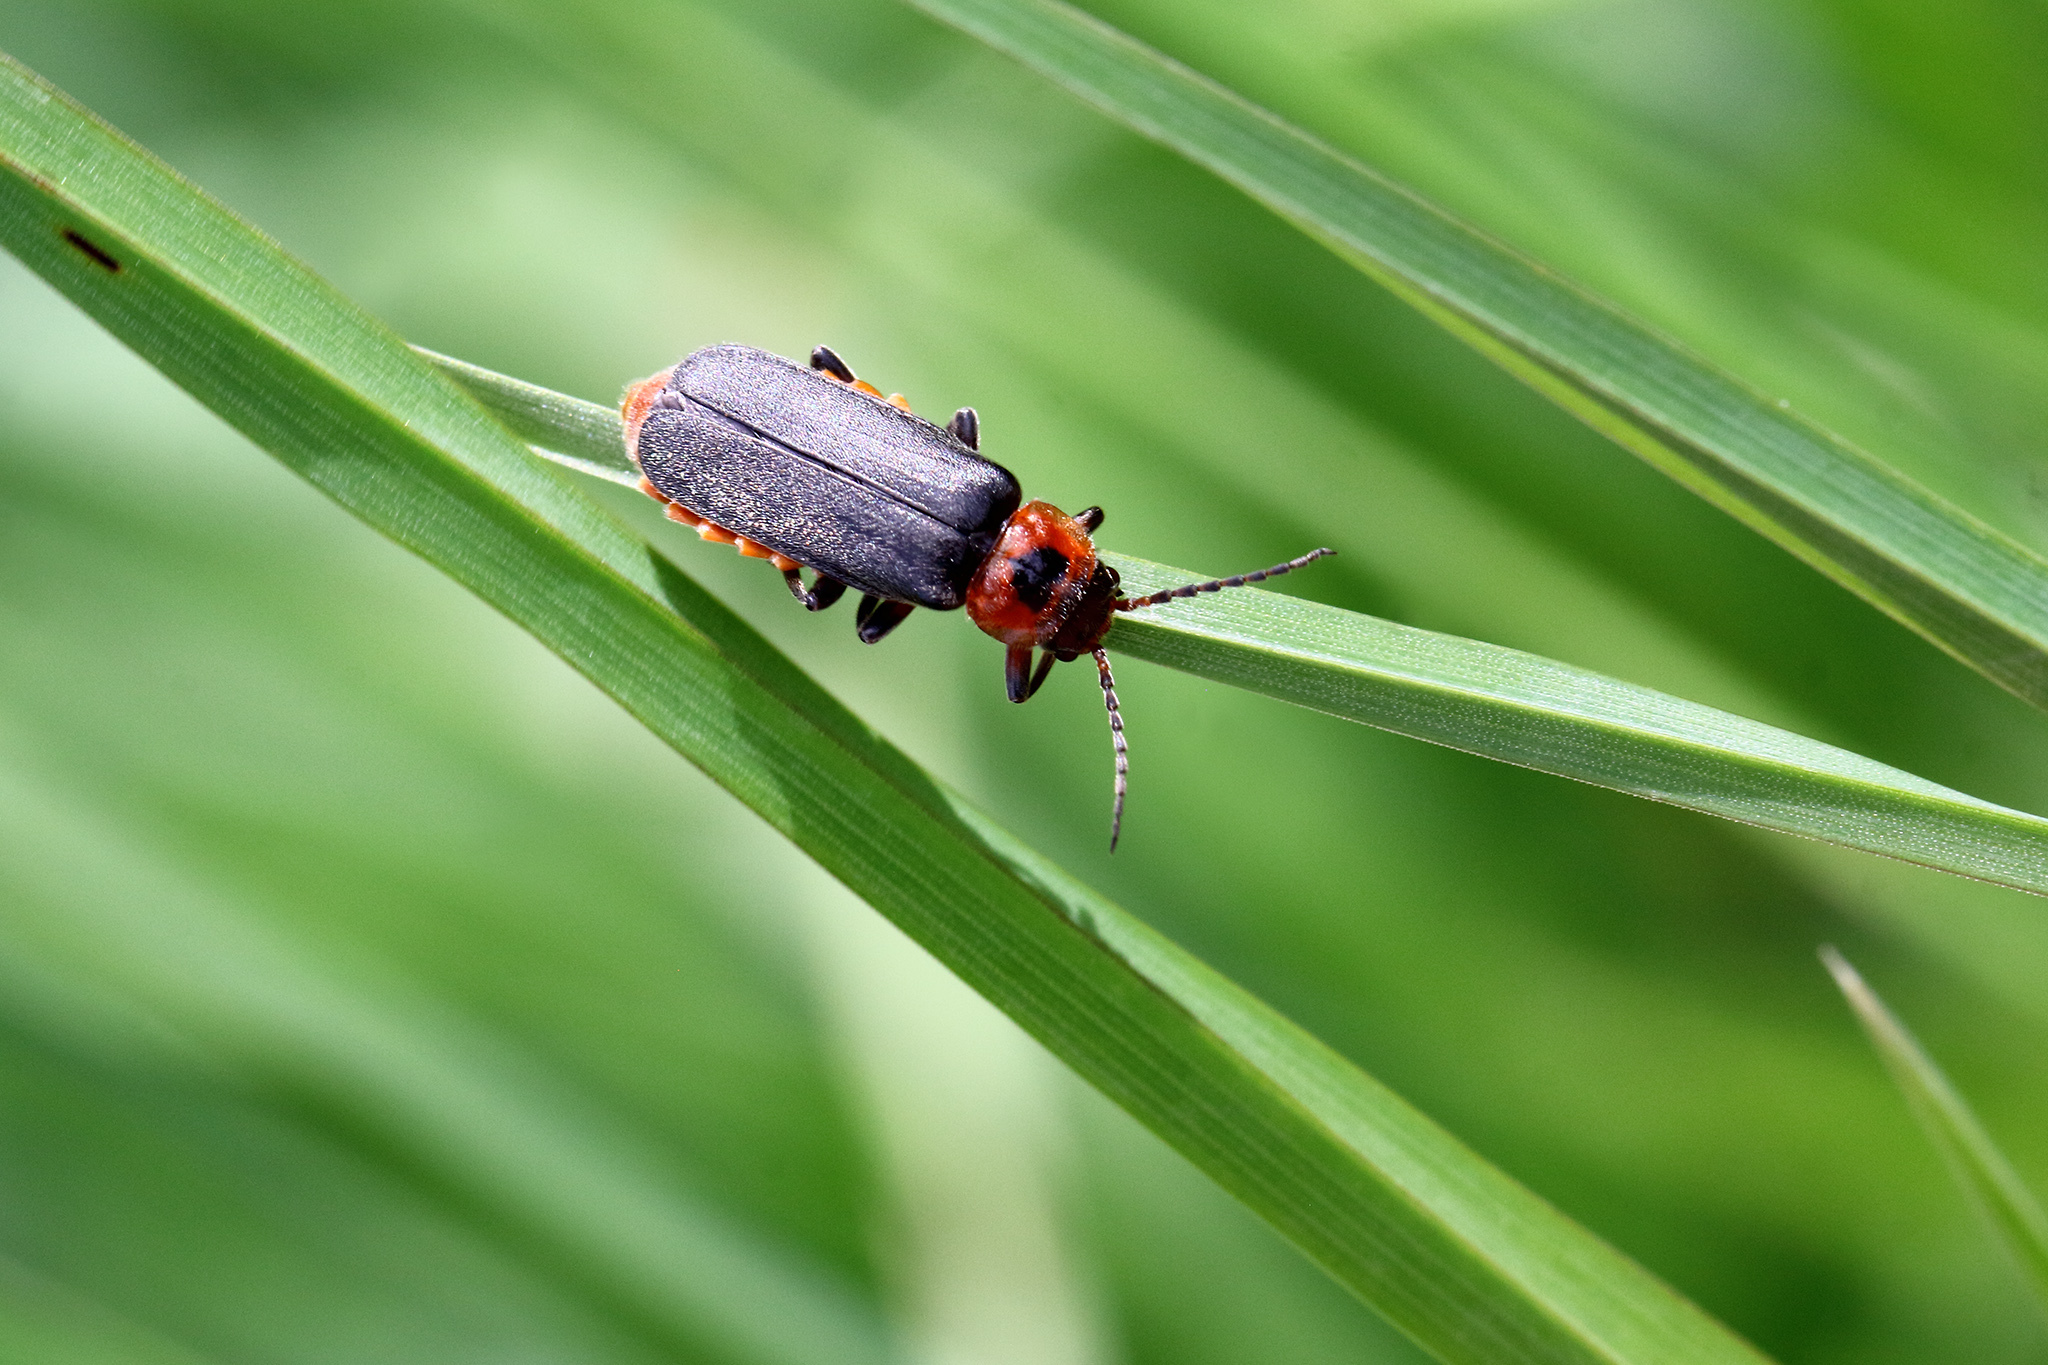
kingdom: Animalia
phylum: Arthropoda
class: Insecta
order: Coleoptera
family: Cantharidae
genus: Cantharis
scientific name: Cantharis rustica
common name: Soldier beetle
